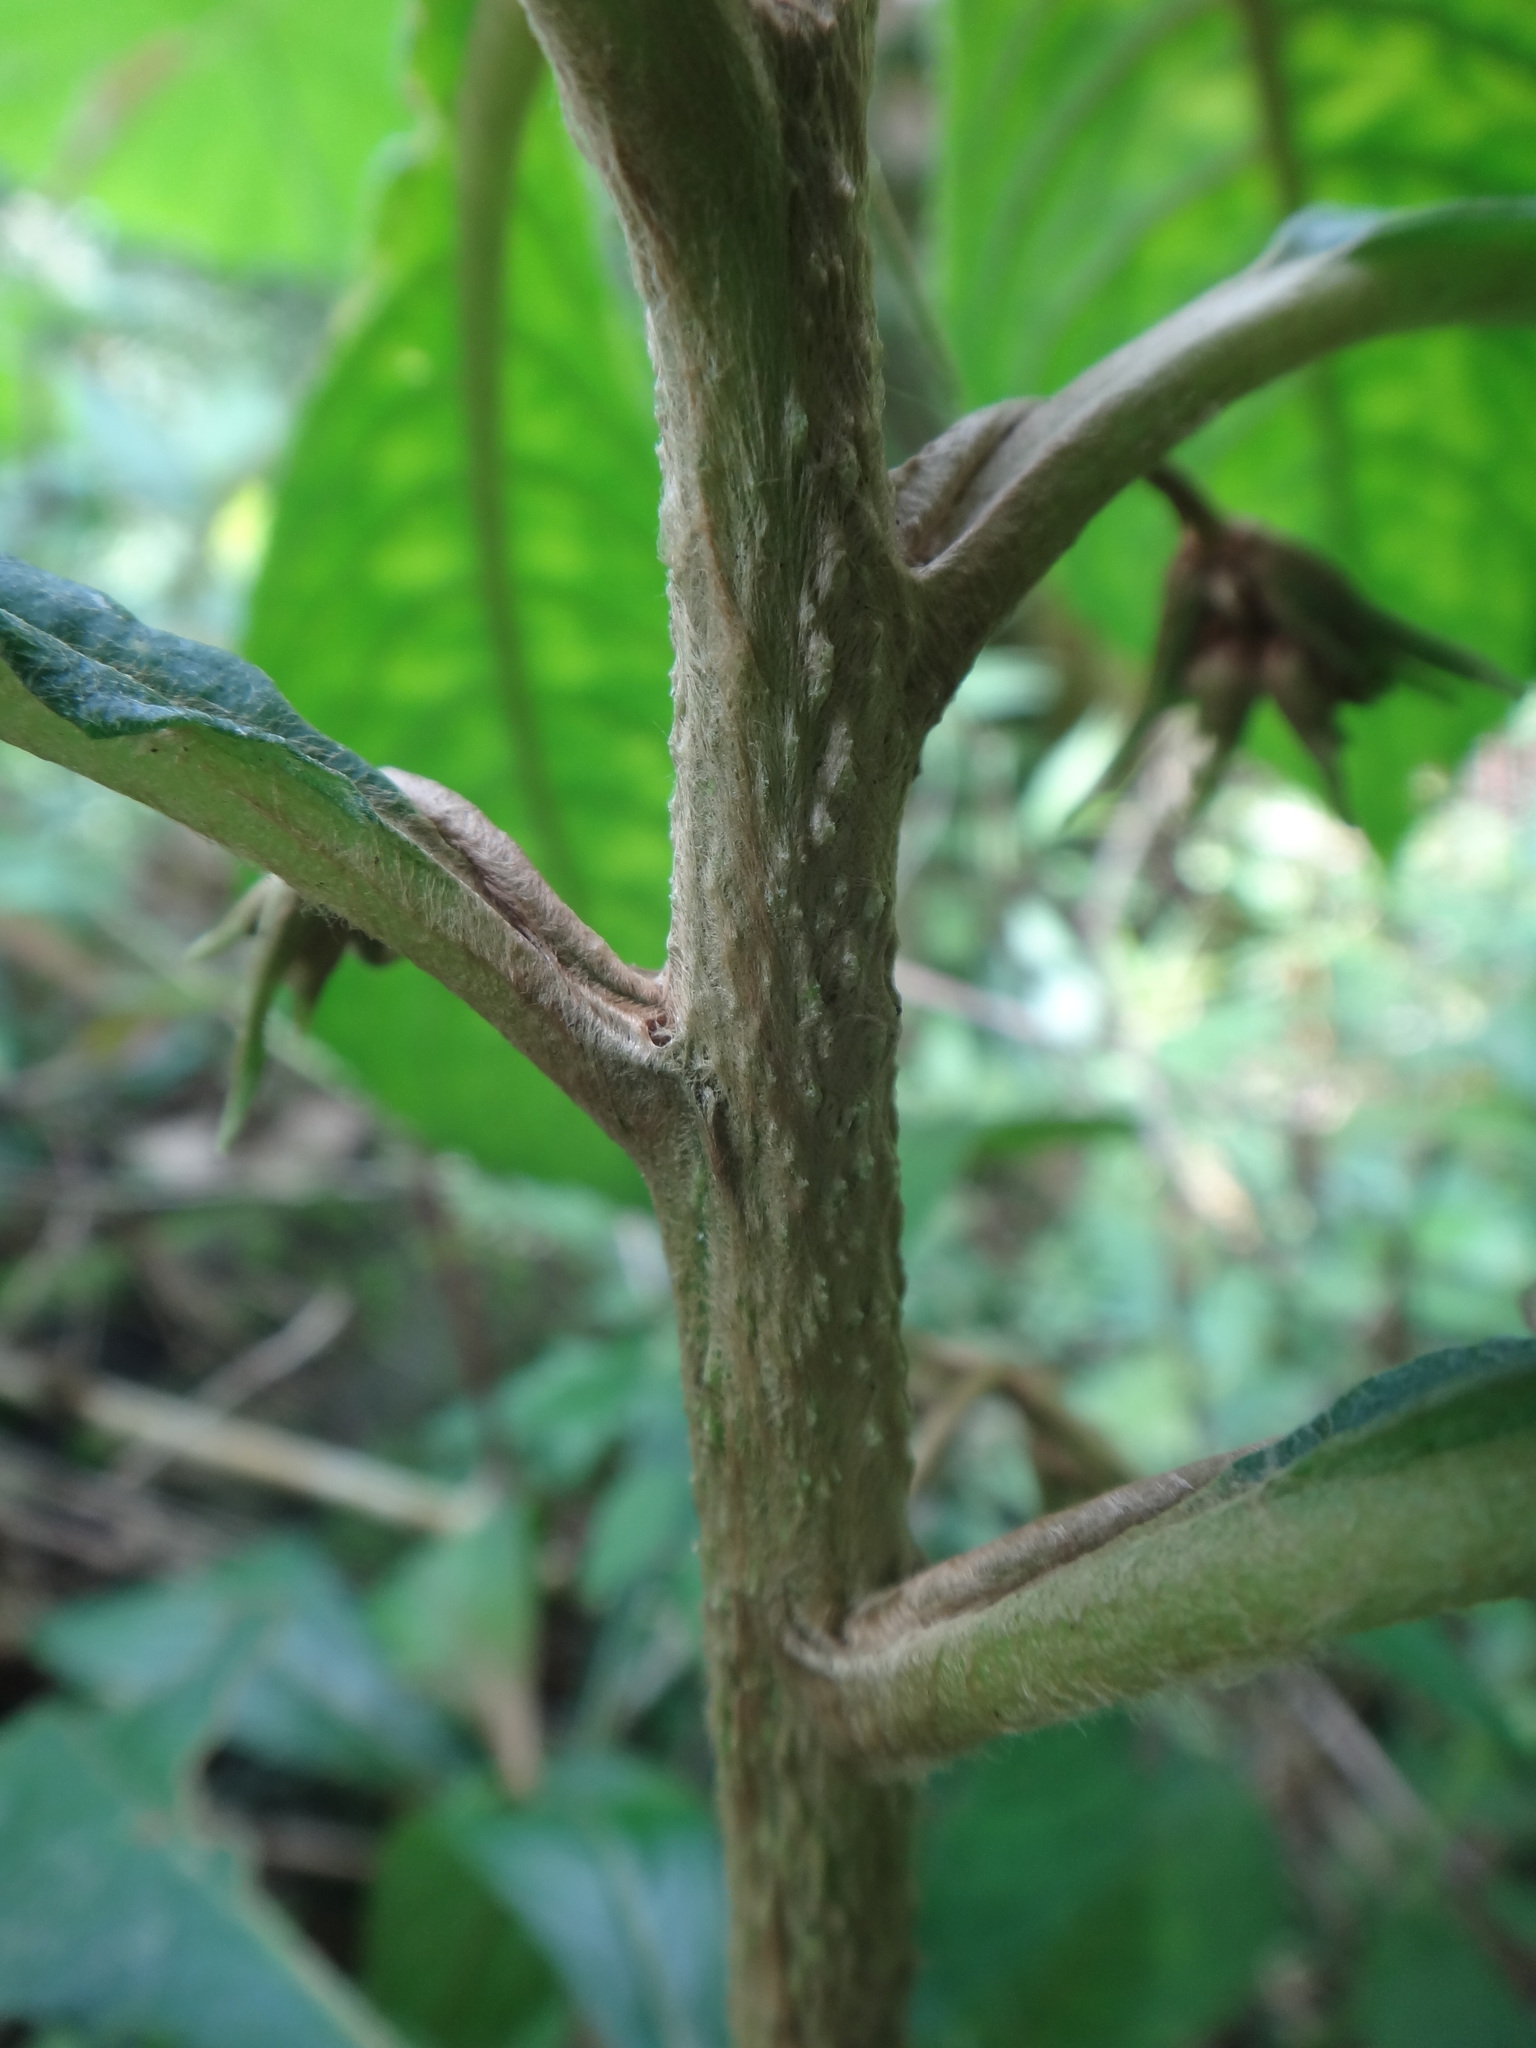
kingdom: Plantae
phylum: Tracheophyta
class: Magnoliopsida
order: Lamiales
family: Gesneriaceae
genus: Rhynchotechum
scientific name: Rhynchotechum discolor
